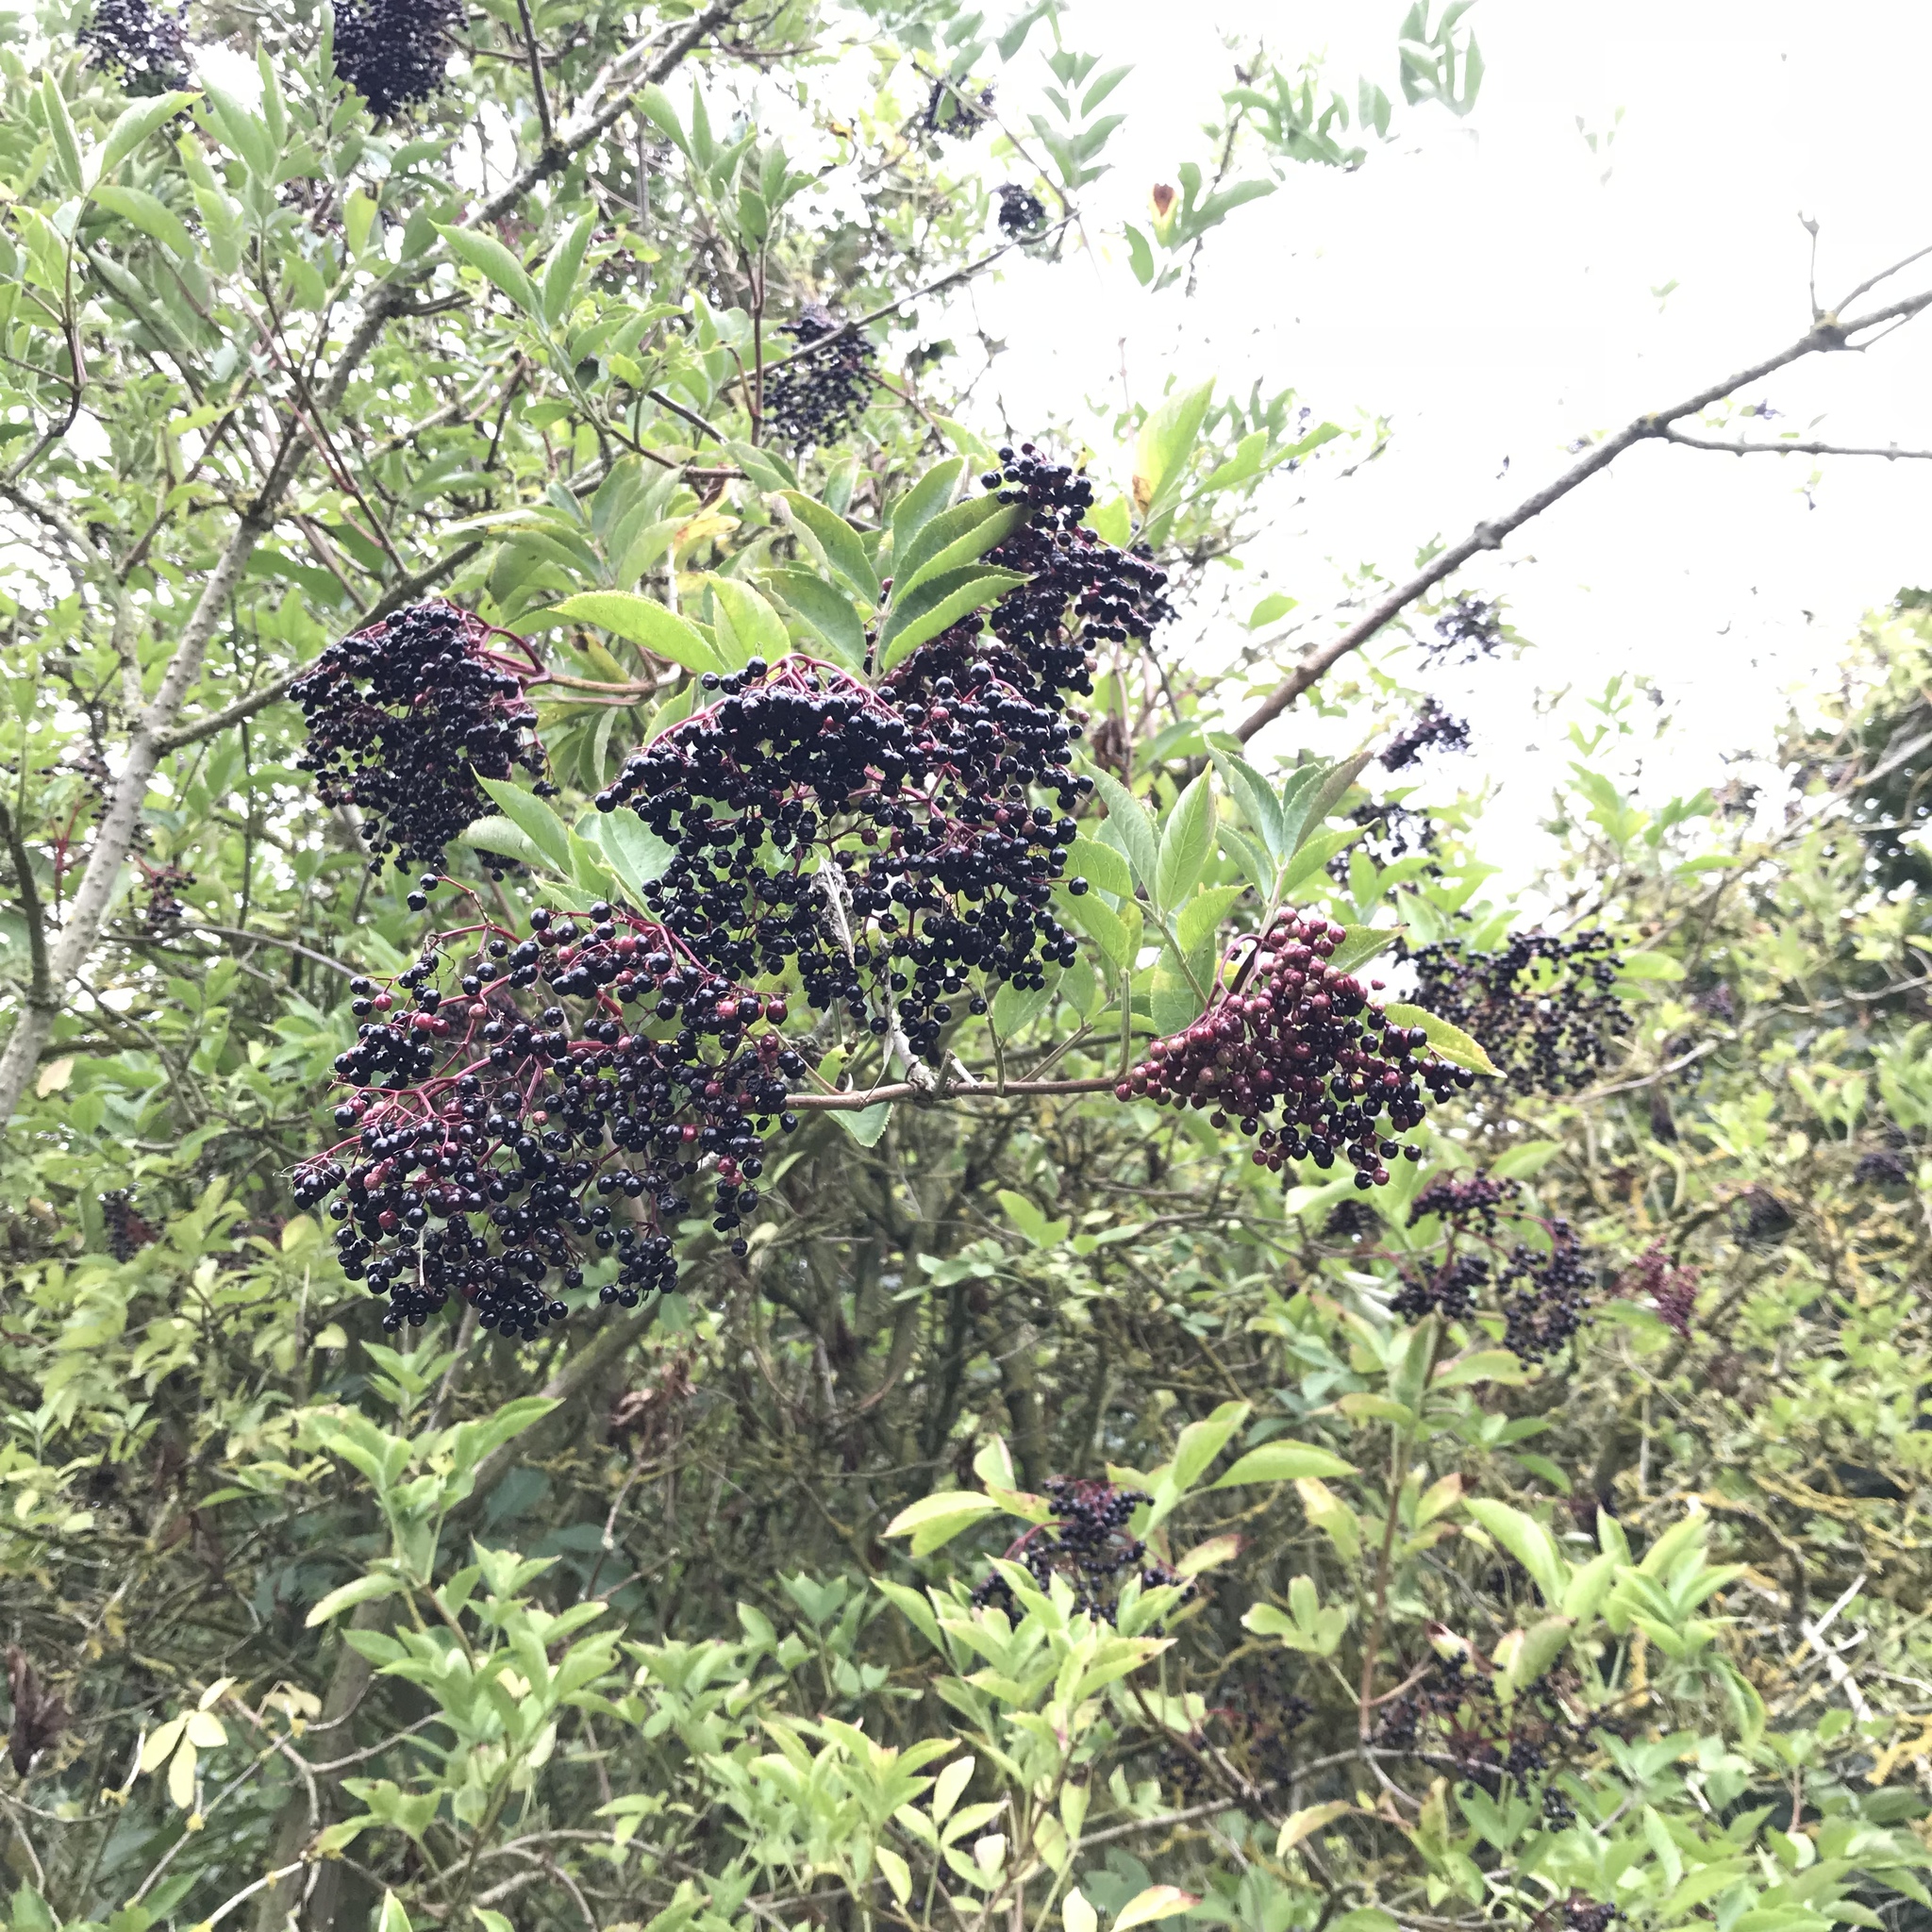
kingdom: Plantae
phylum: Tracheophyta
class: Magnoliopsida
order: Dipsacales
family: Viburnaceae
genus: Sambucus
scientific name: Sambucus nigra
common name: Elder
